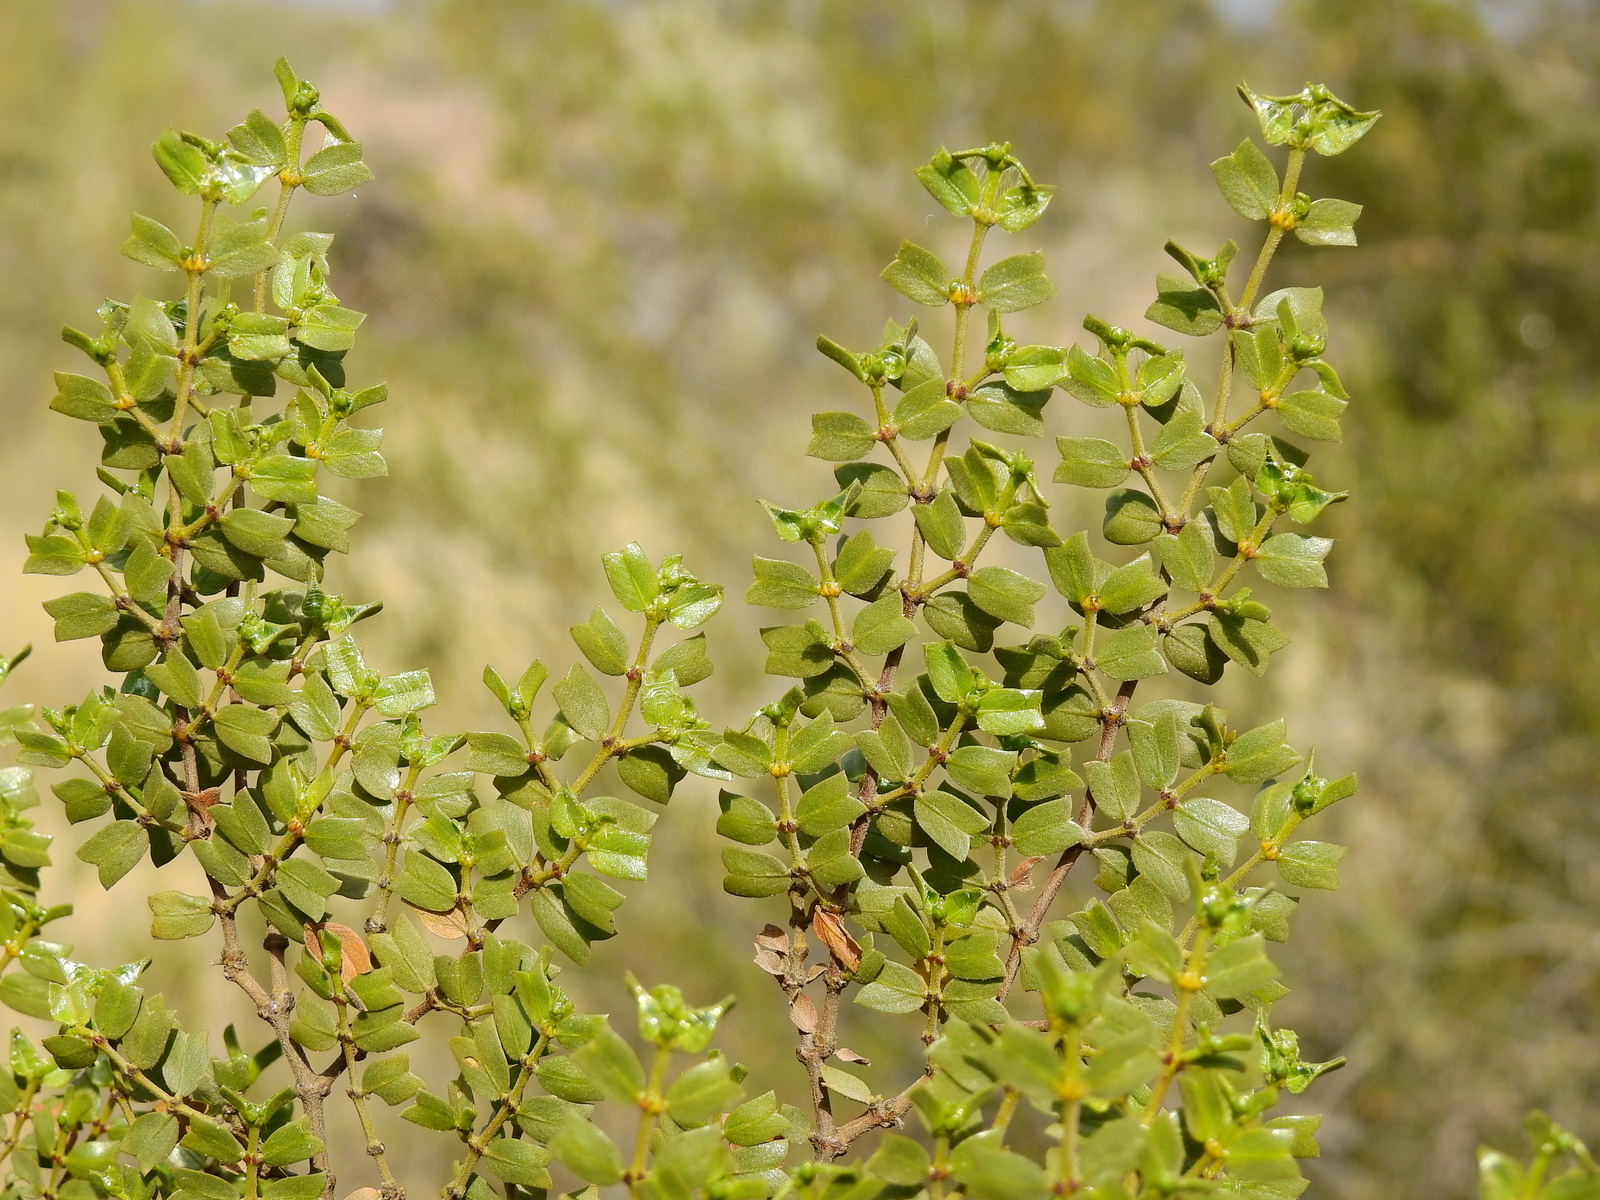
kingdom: Plantae
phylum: Tracheophyta
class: Magnoliopsida
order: Zygophyllales
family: Zygophyllaceae
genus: Larrea
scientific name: Larrea cuneifolia
